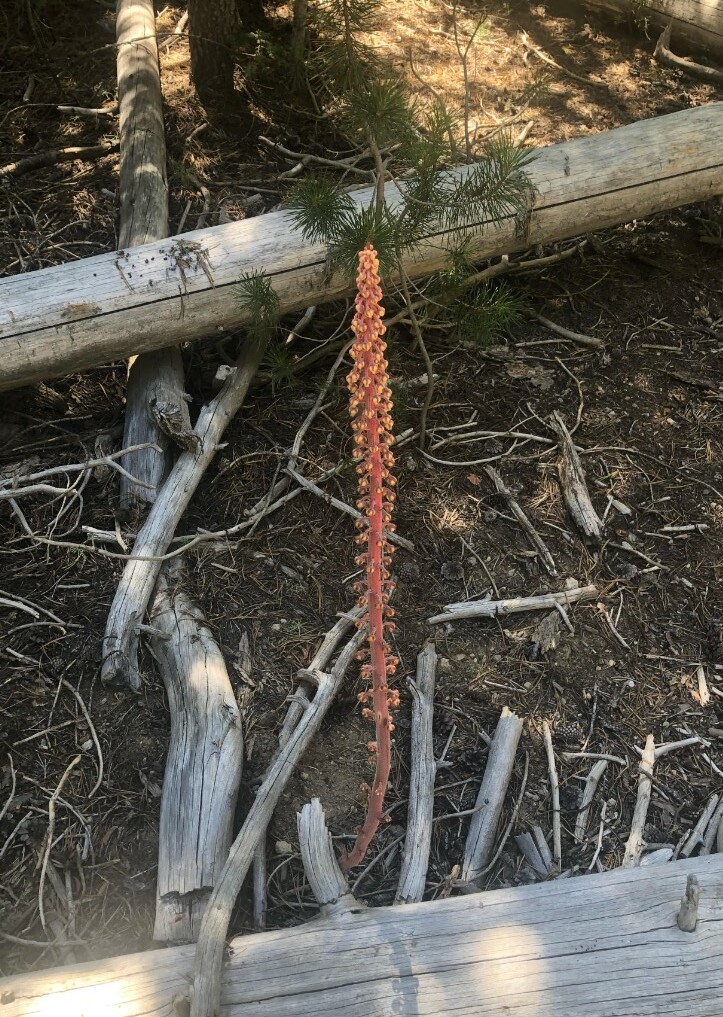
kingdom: Plantae
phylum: Tracheophyta
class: Magnoliopsida
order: Ericales
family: Ericaceae
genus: Pterospora
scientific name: Pterospora andromedea
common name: Giant bird's-nest
